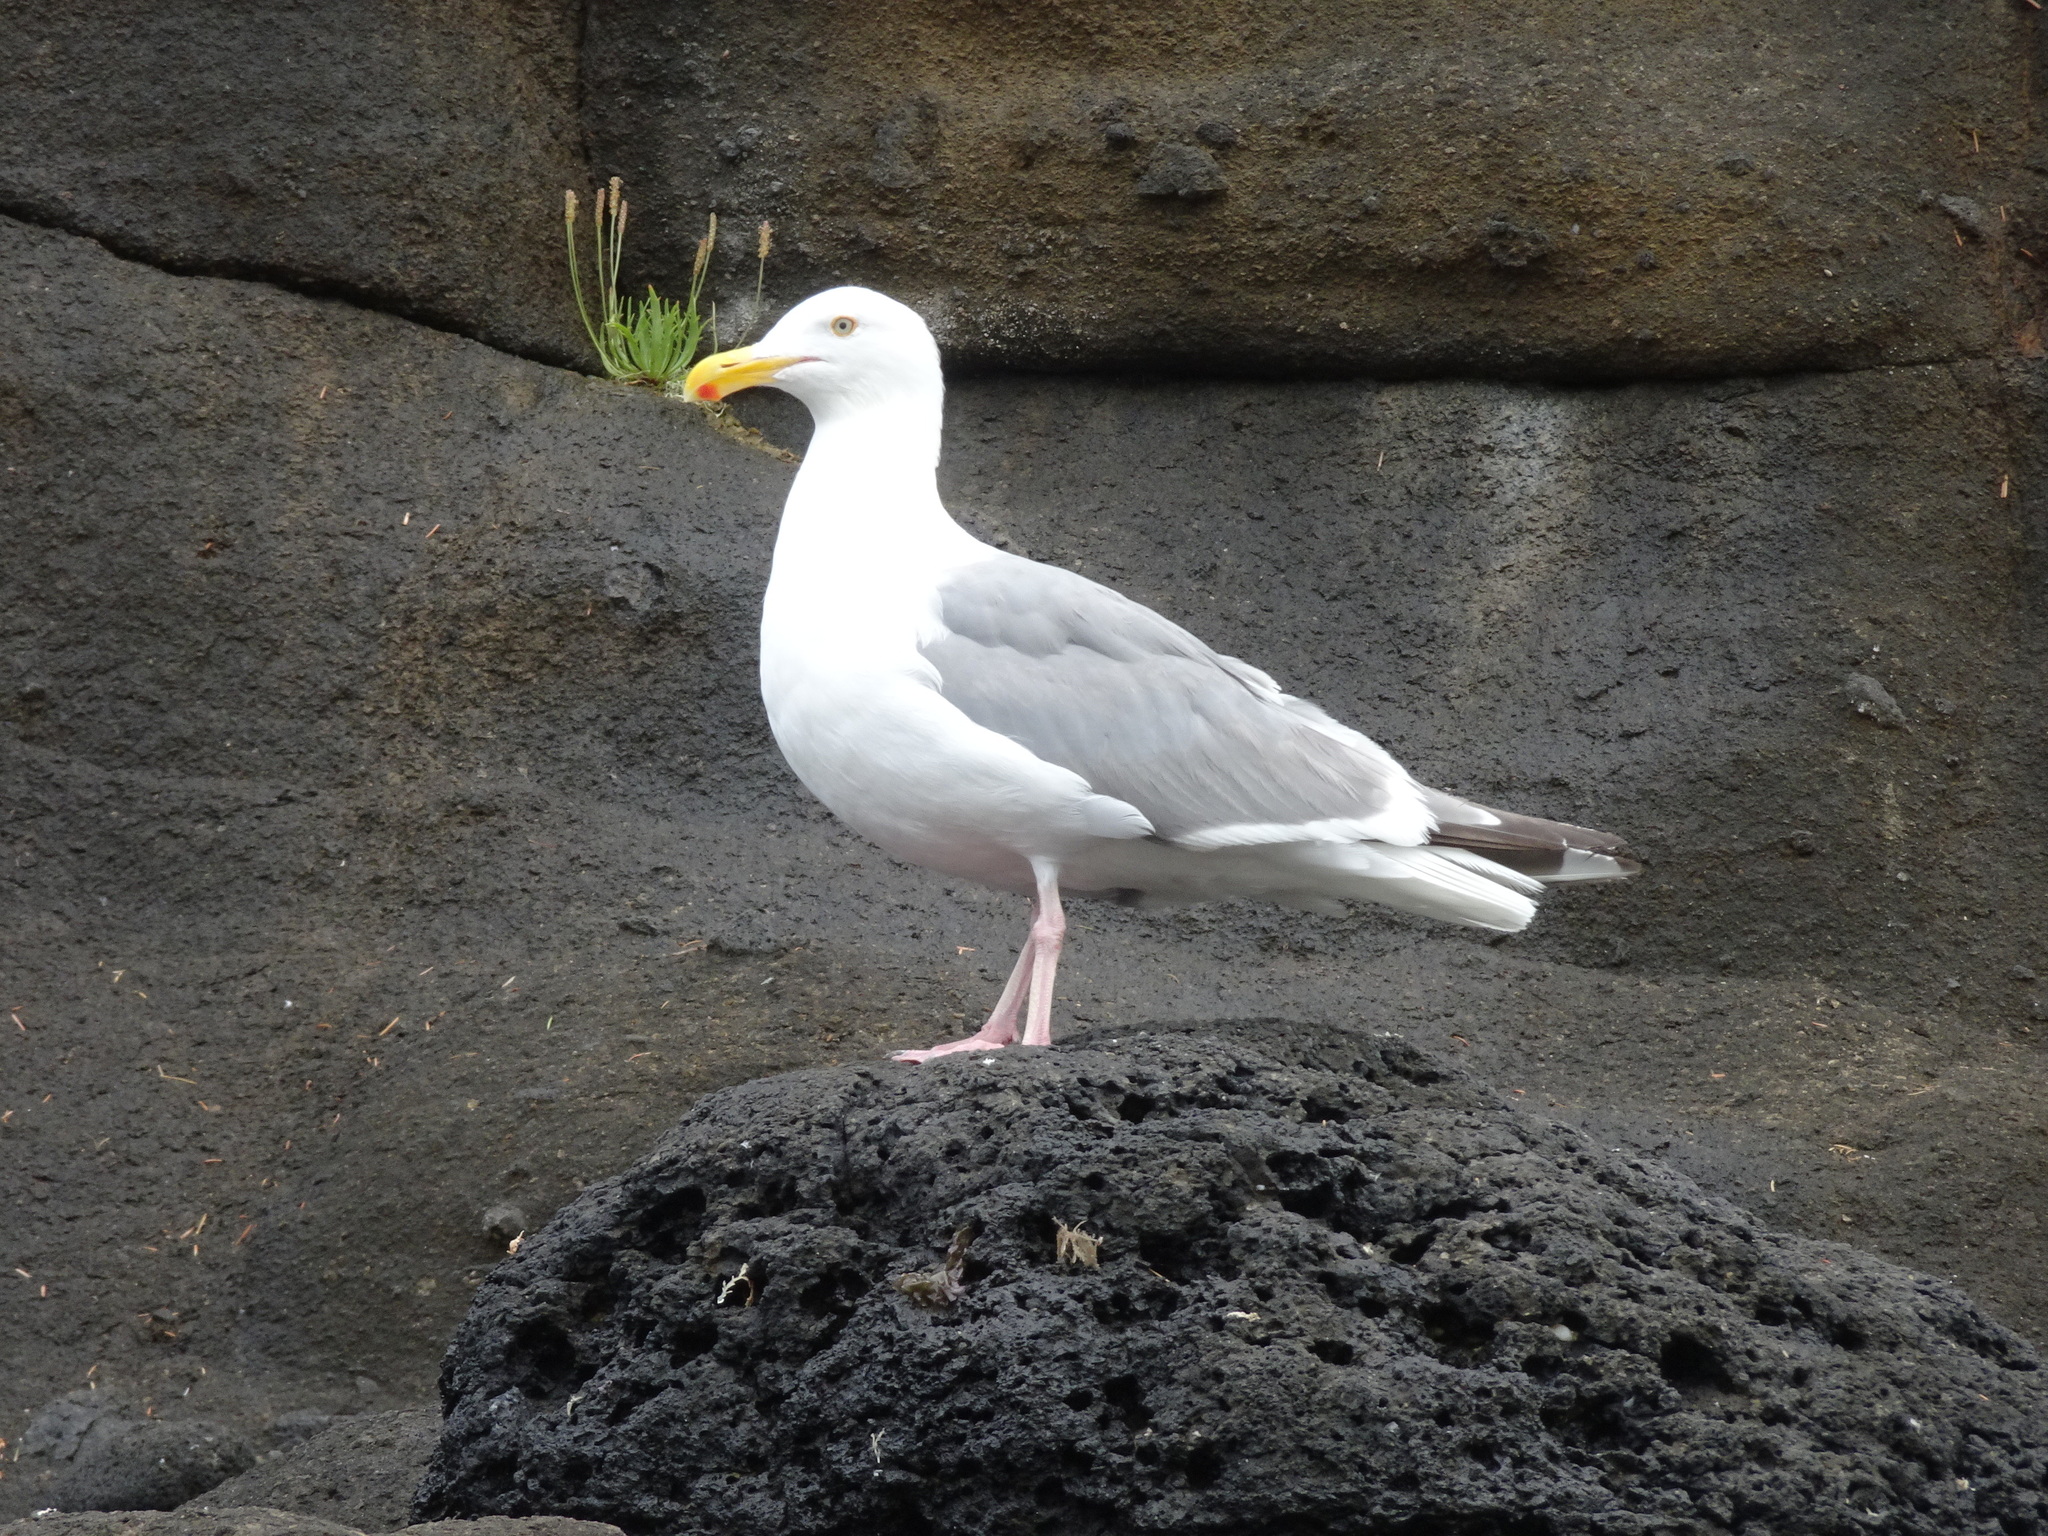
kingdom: Animalia
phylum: Chordata
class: Aves
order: Charadriiformes
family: Laridae
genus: Larus
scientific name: Larus
